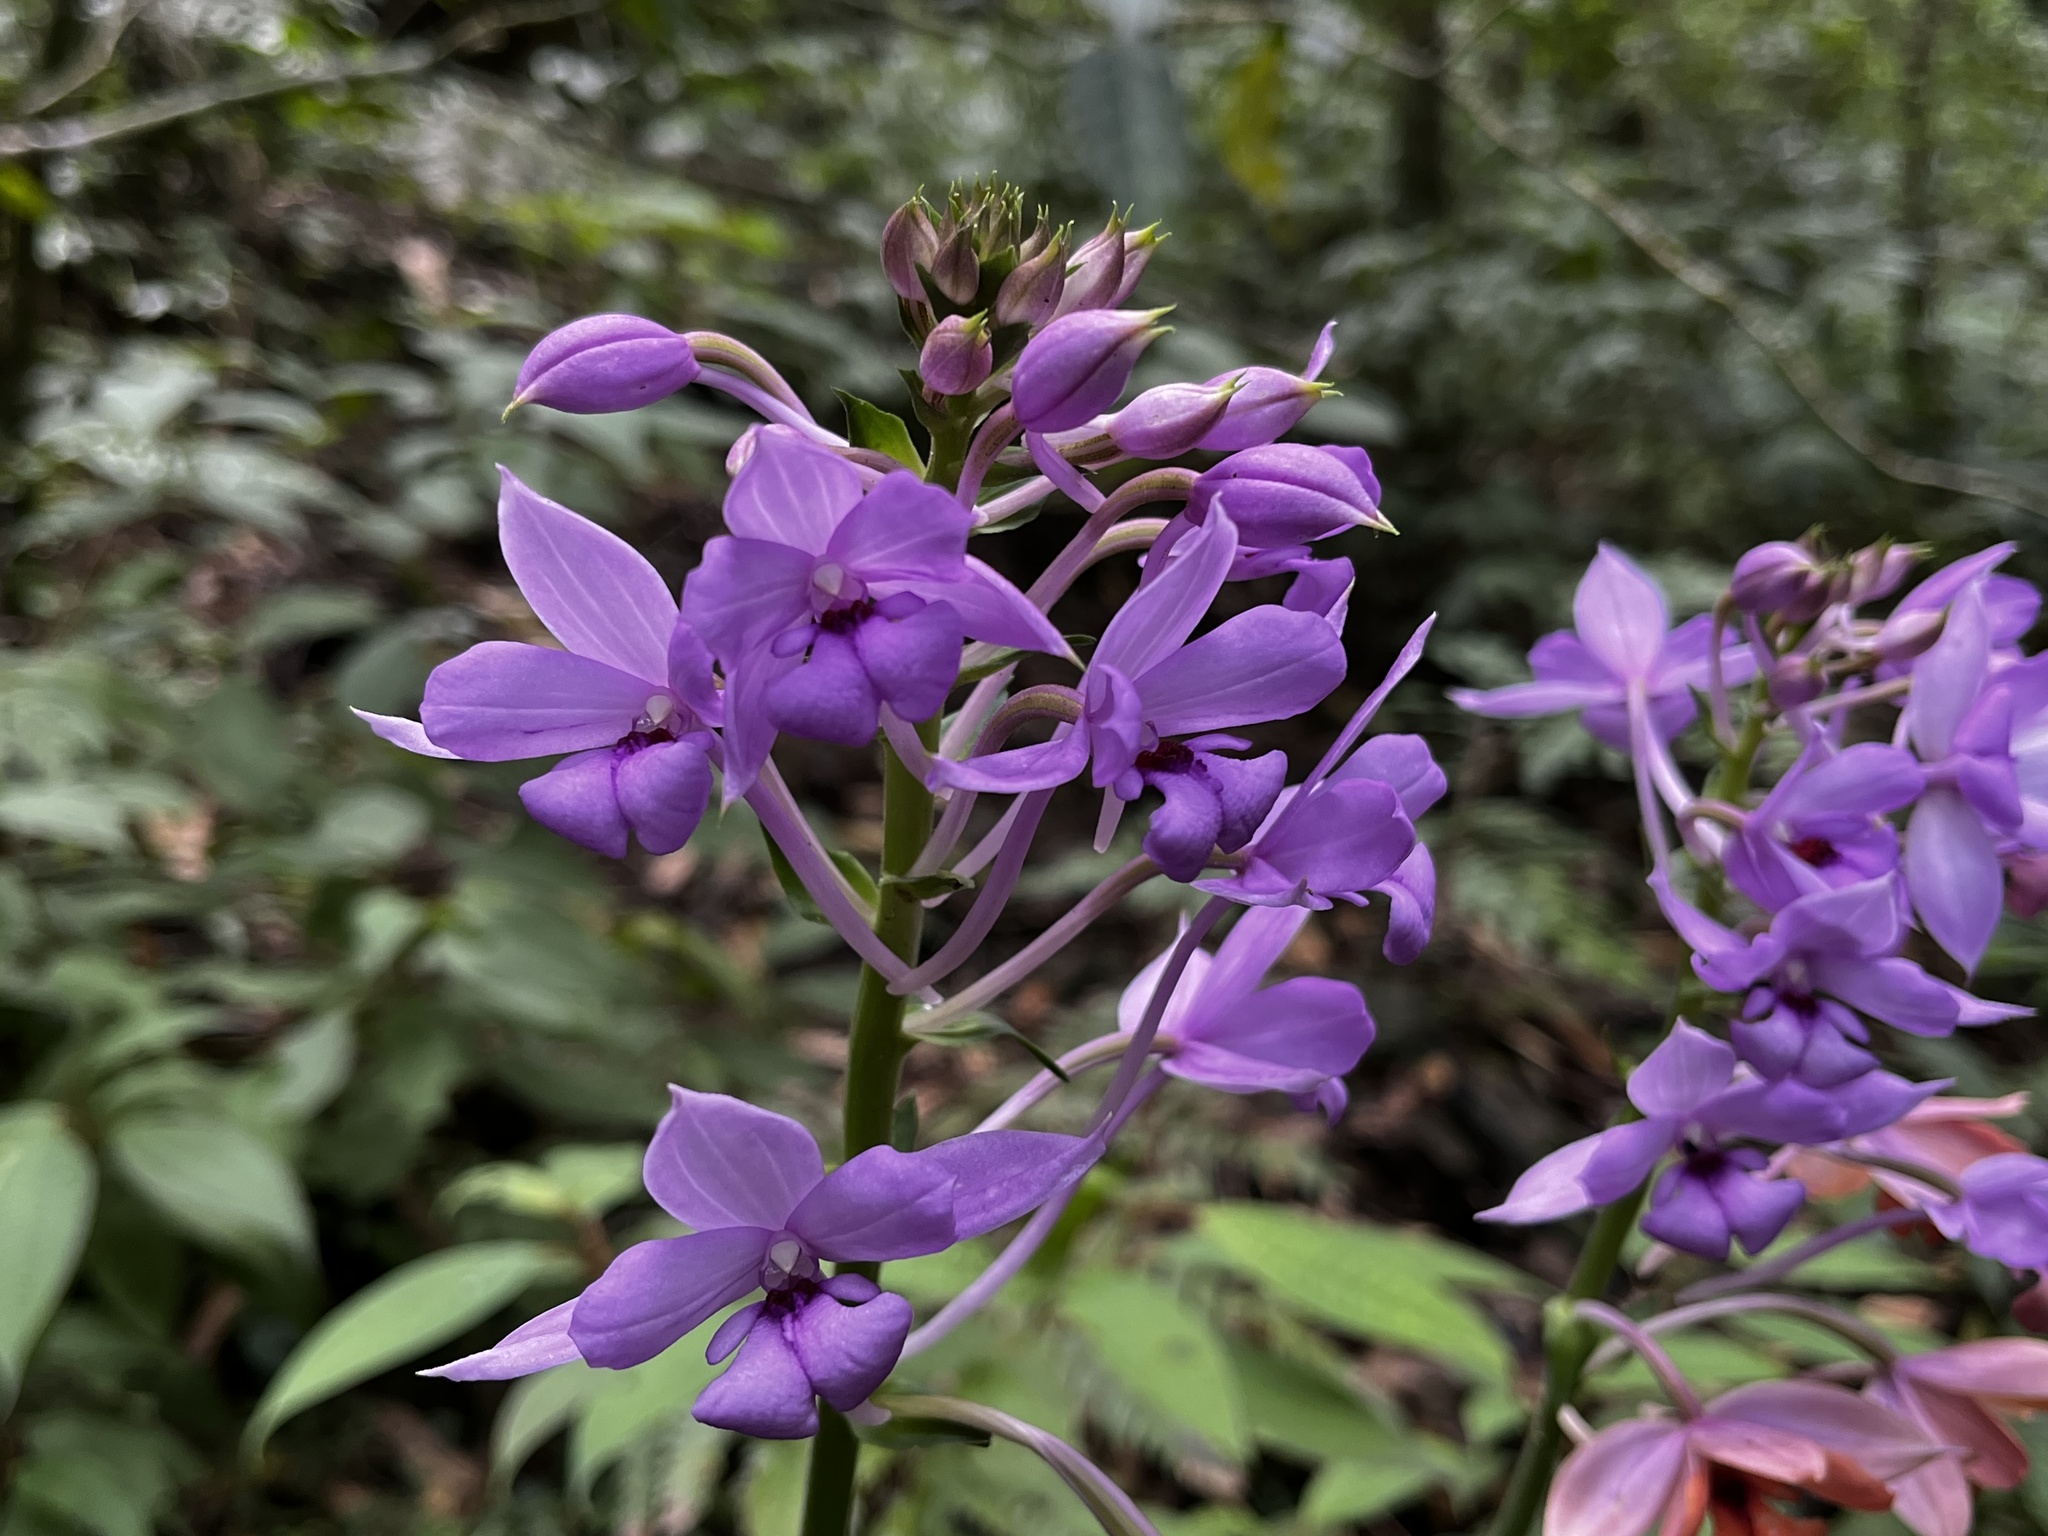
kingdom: Plantae
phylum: Tracheophyta
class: Liliopsida
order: Asparagales
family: Orchidaceae
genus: Calanthe
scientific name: Calanthe masuca
